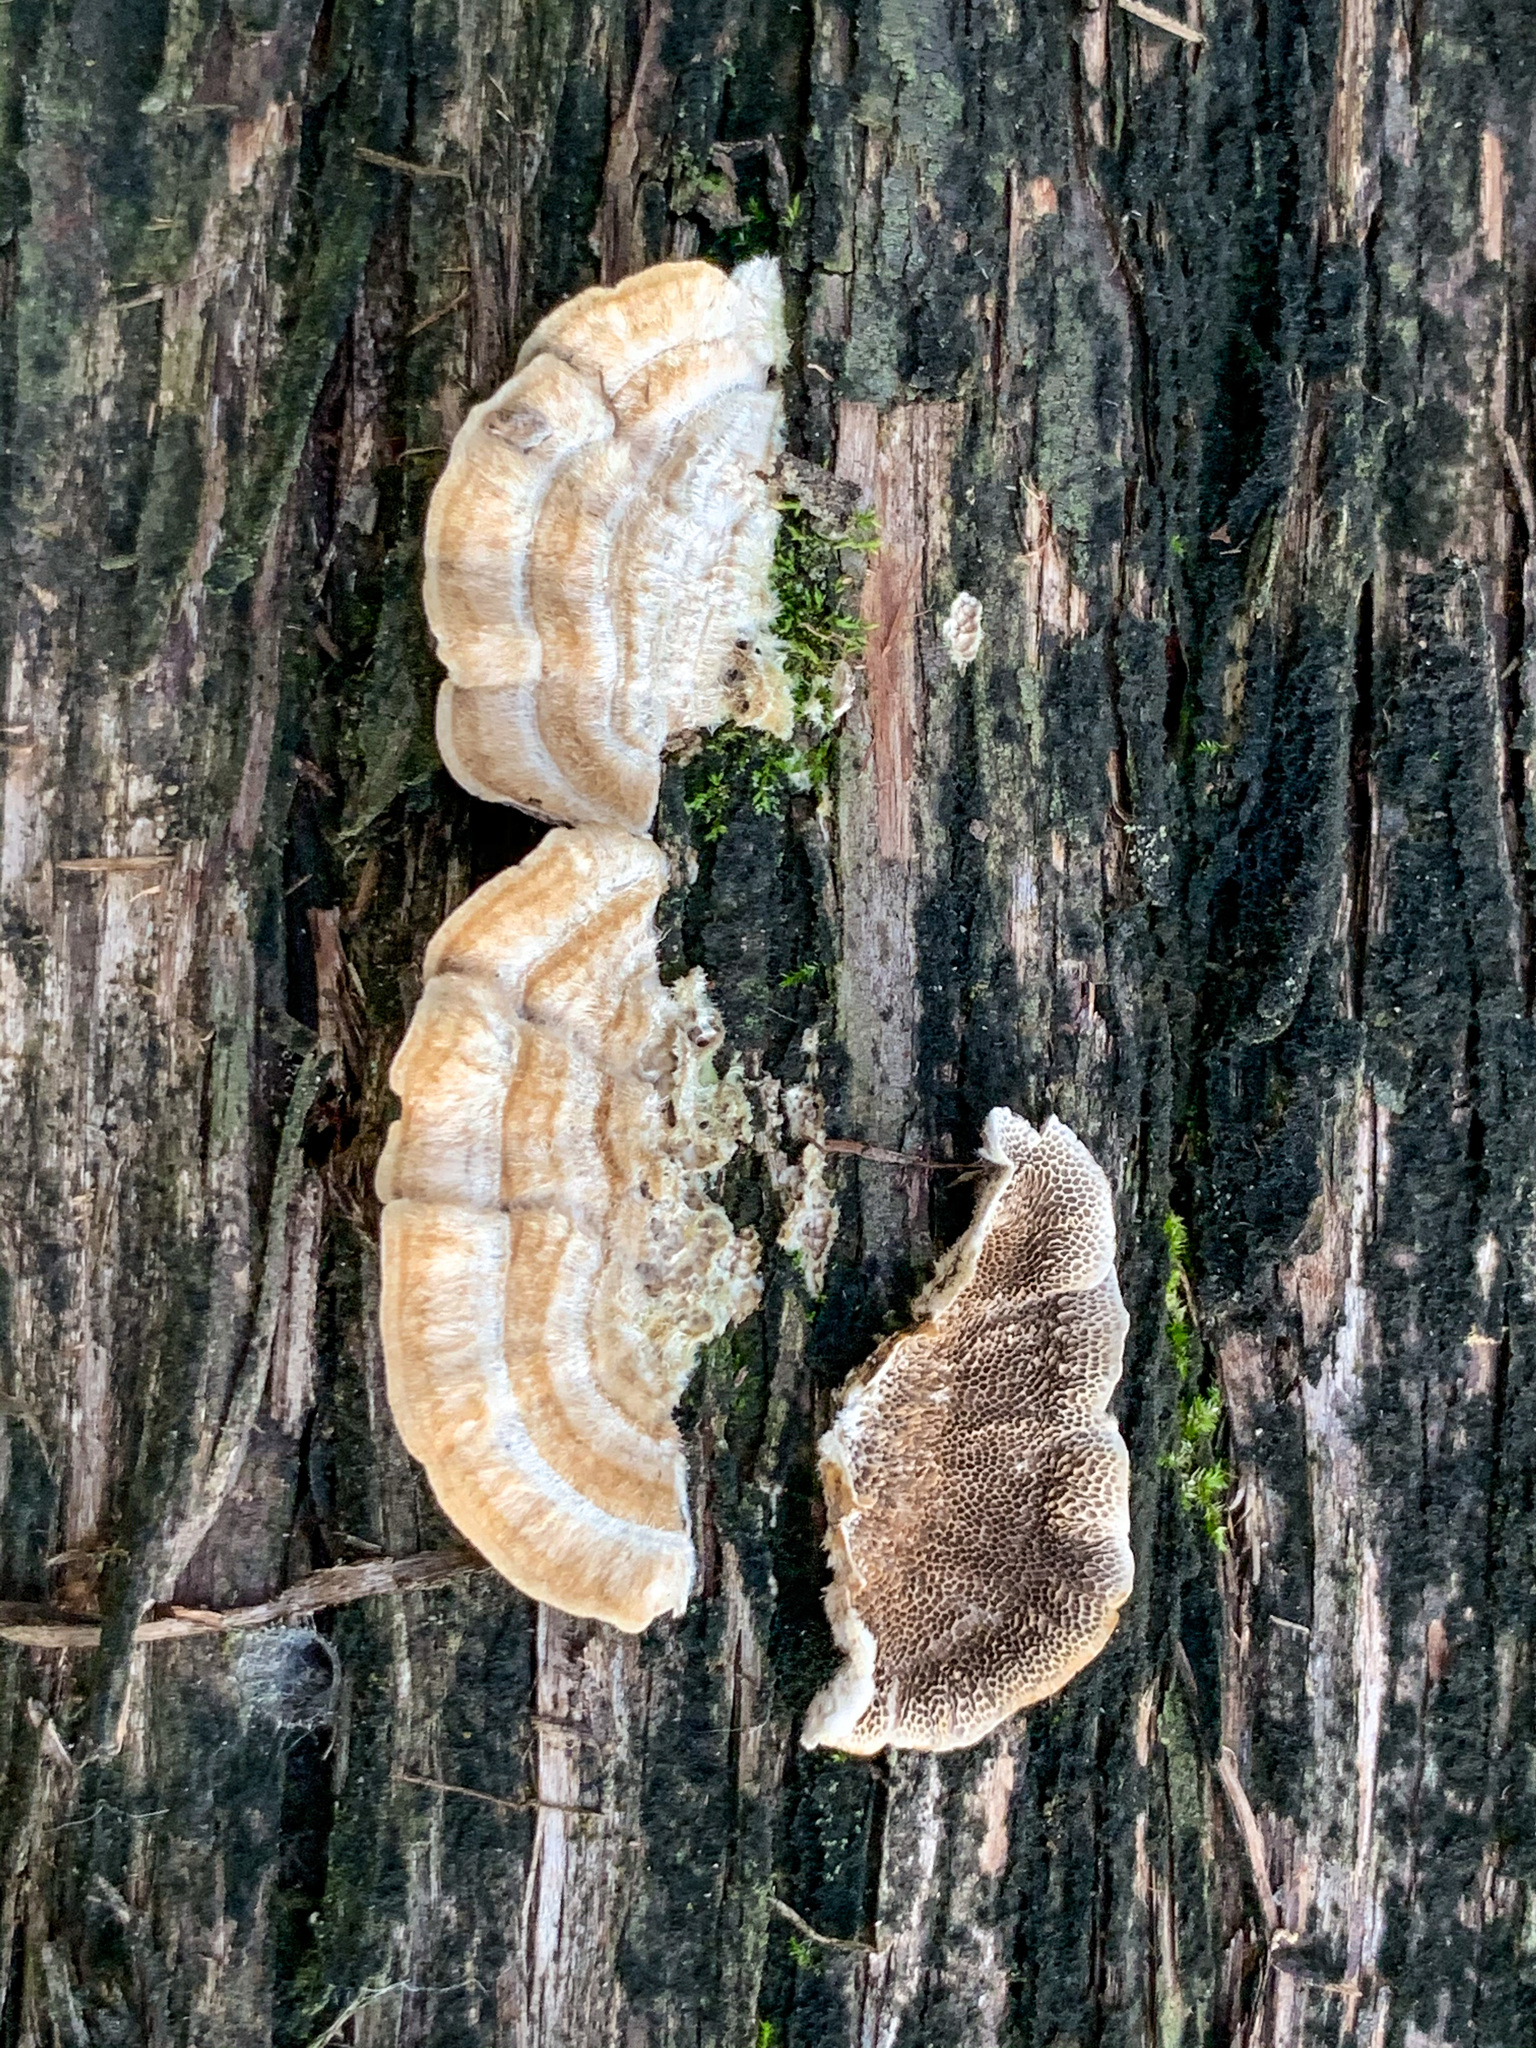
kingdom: Fungi
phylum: Basidiomycota
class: Agaricomycetes
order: Polyporales
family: Polyporaceae
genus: Trametes
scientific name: Trametes villosa
